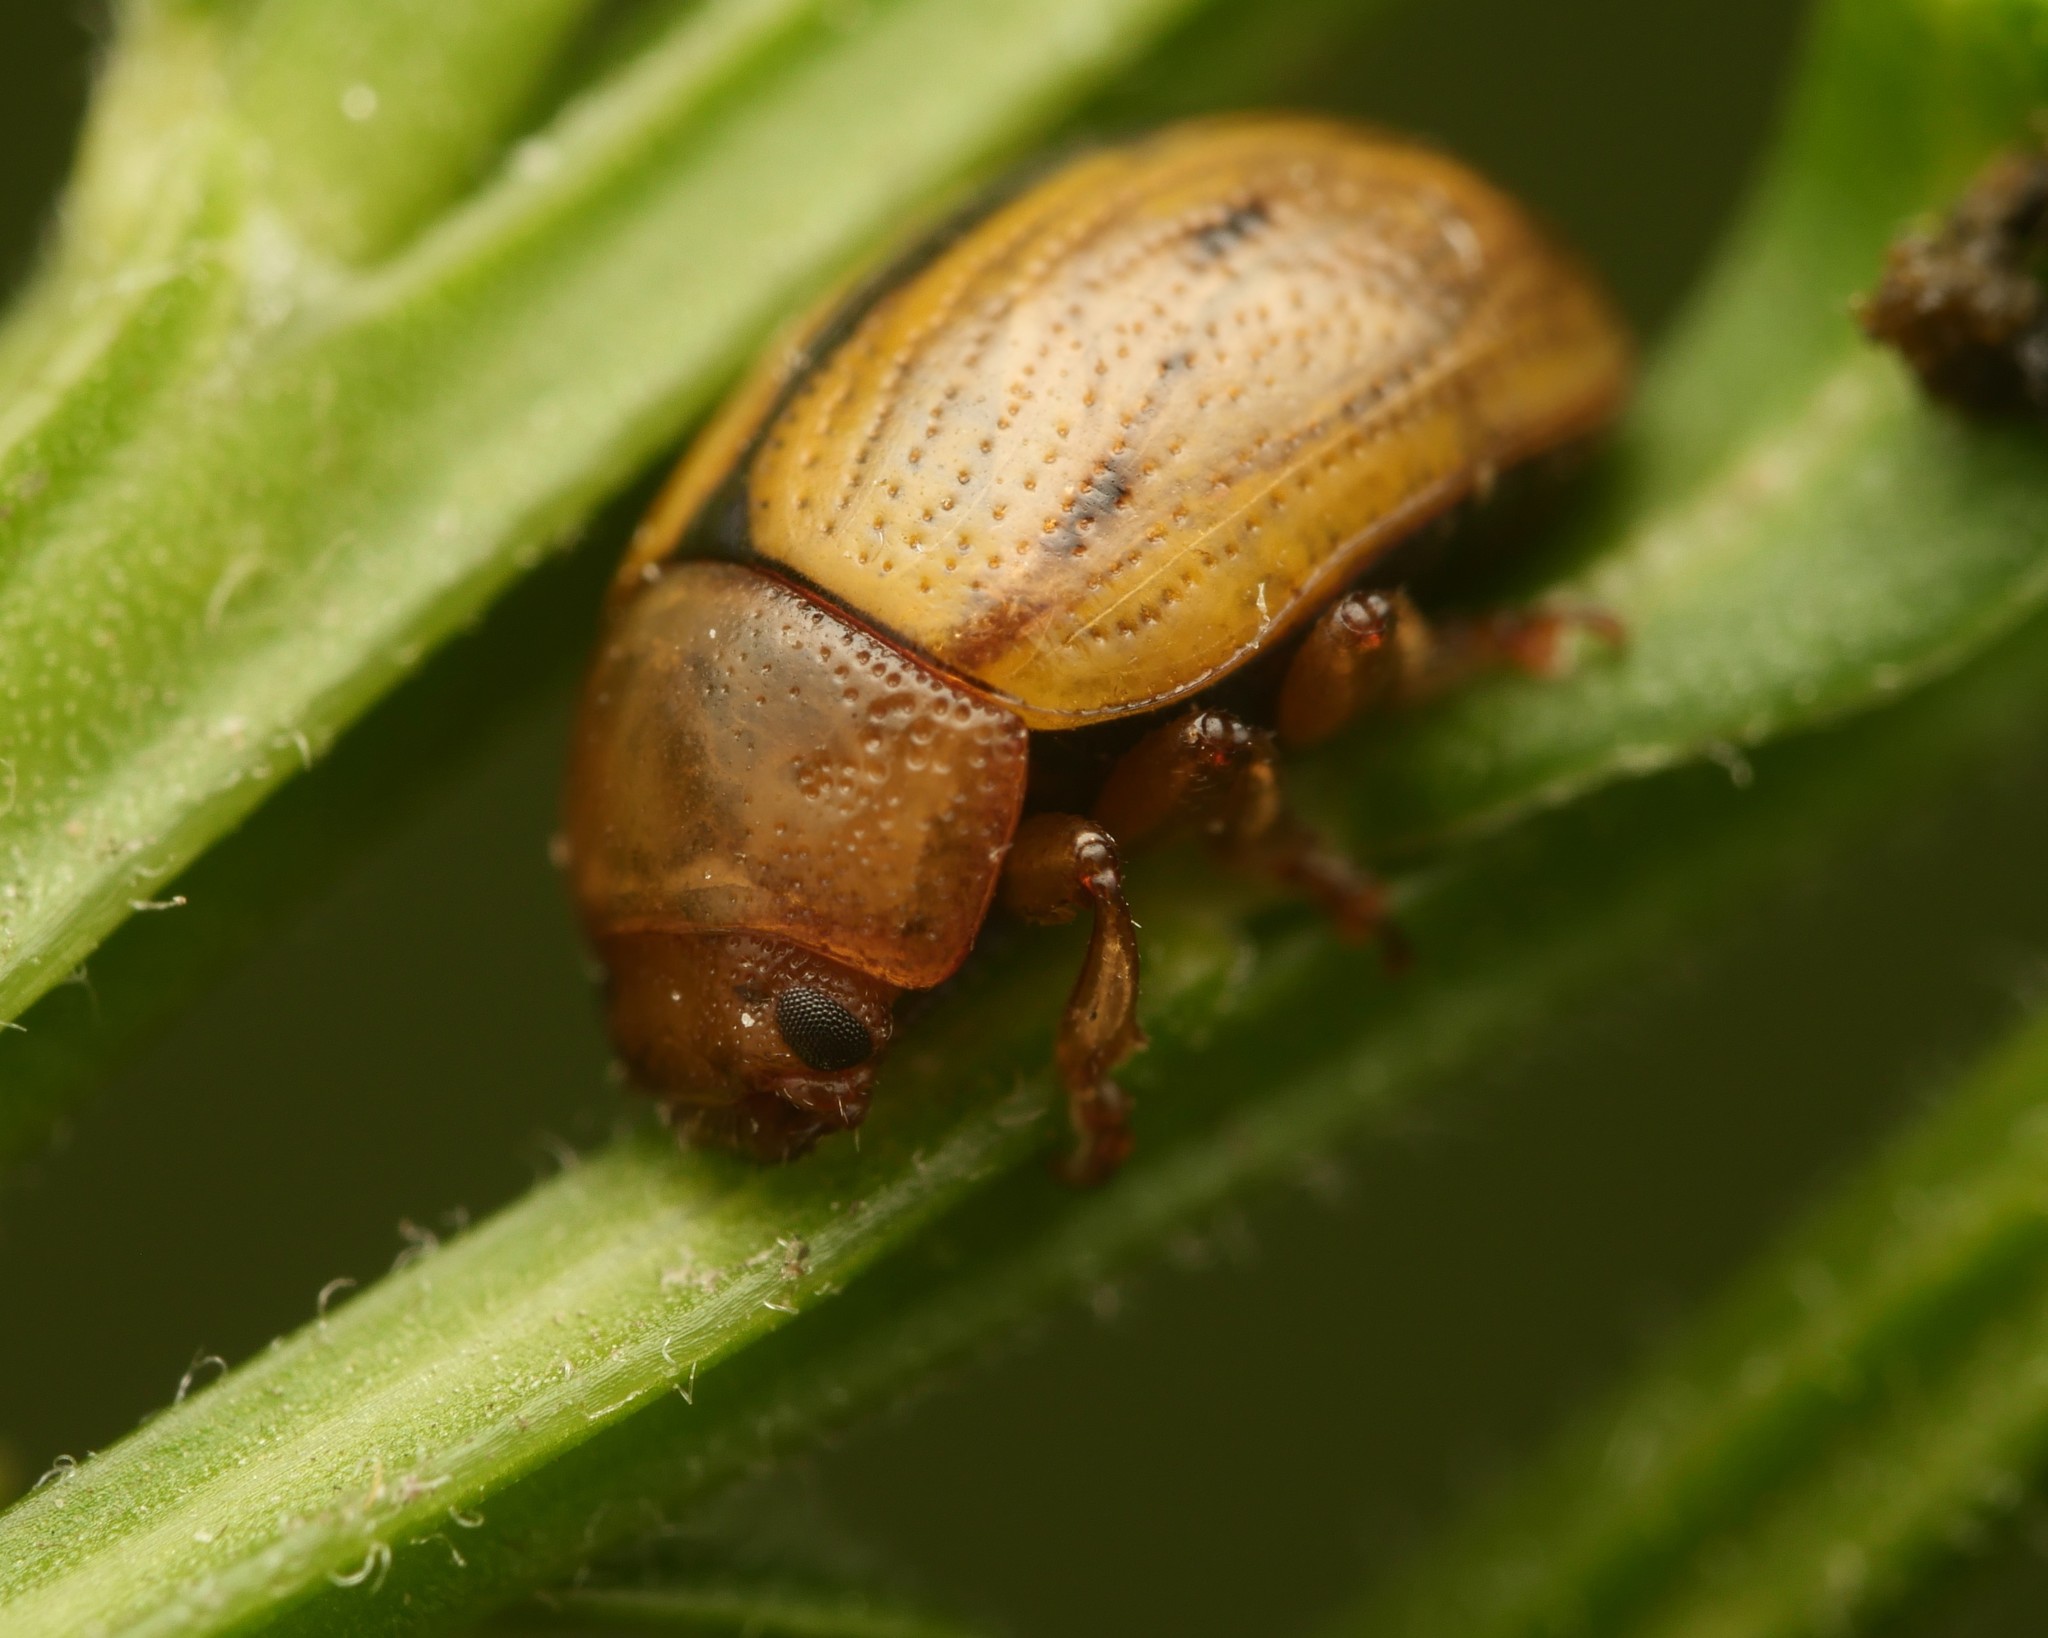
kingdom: Animalia
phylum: Arthropoda
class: Insecta
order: Coleoptera
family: Chrysomelidae
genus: Gonioctena
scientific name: Gonioctena olivacea
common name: Broom leaf beetle
